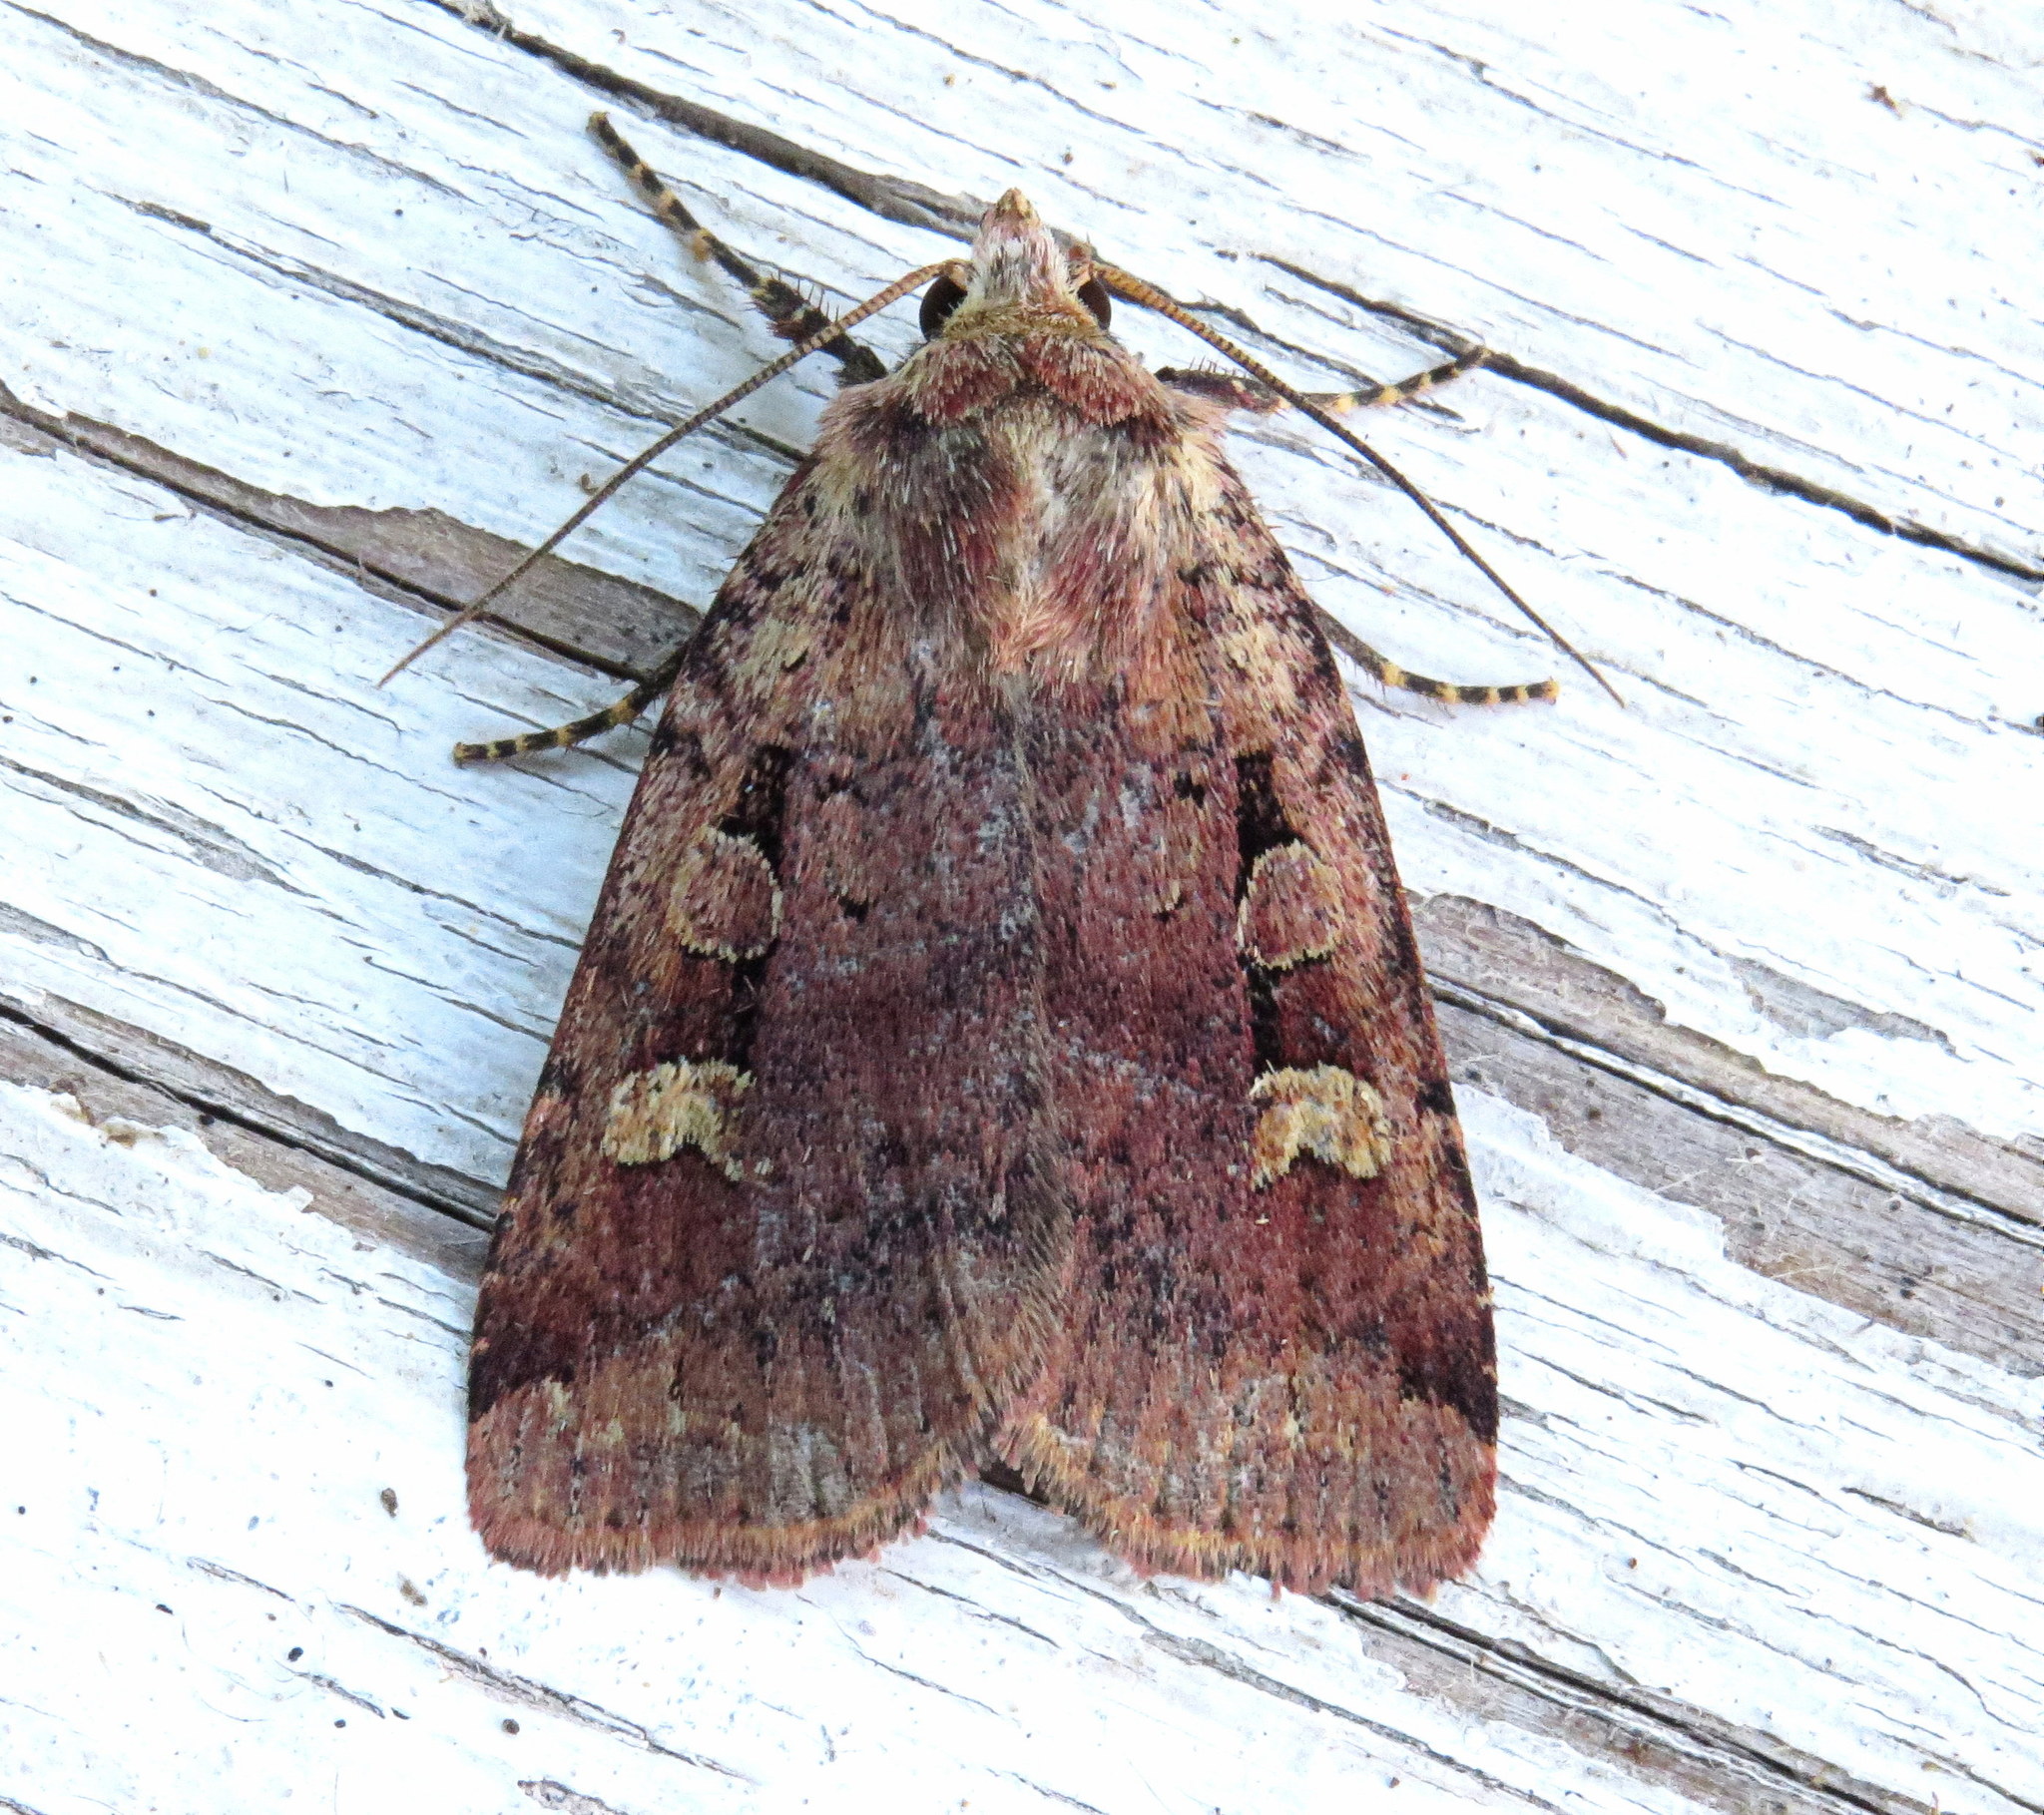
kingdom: Animalia
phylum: Arthropoda
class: Insecta
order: Lepidoptera
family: Noctuidae
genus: Diarsia
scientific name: Diarsia rubifera
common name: Red dart
